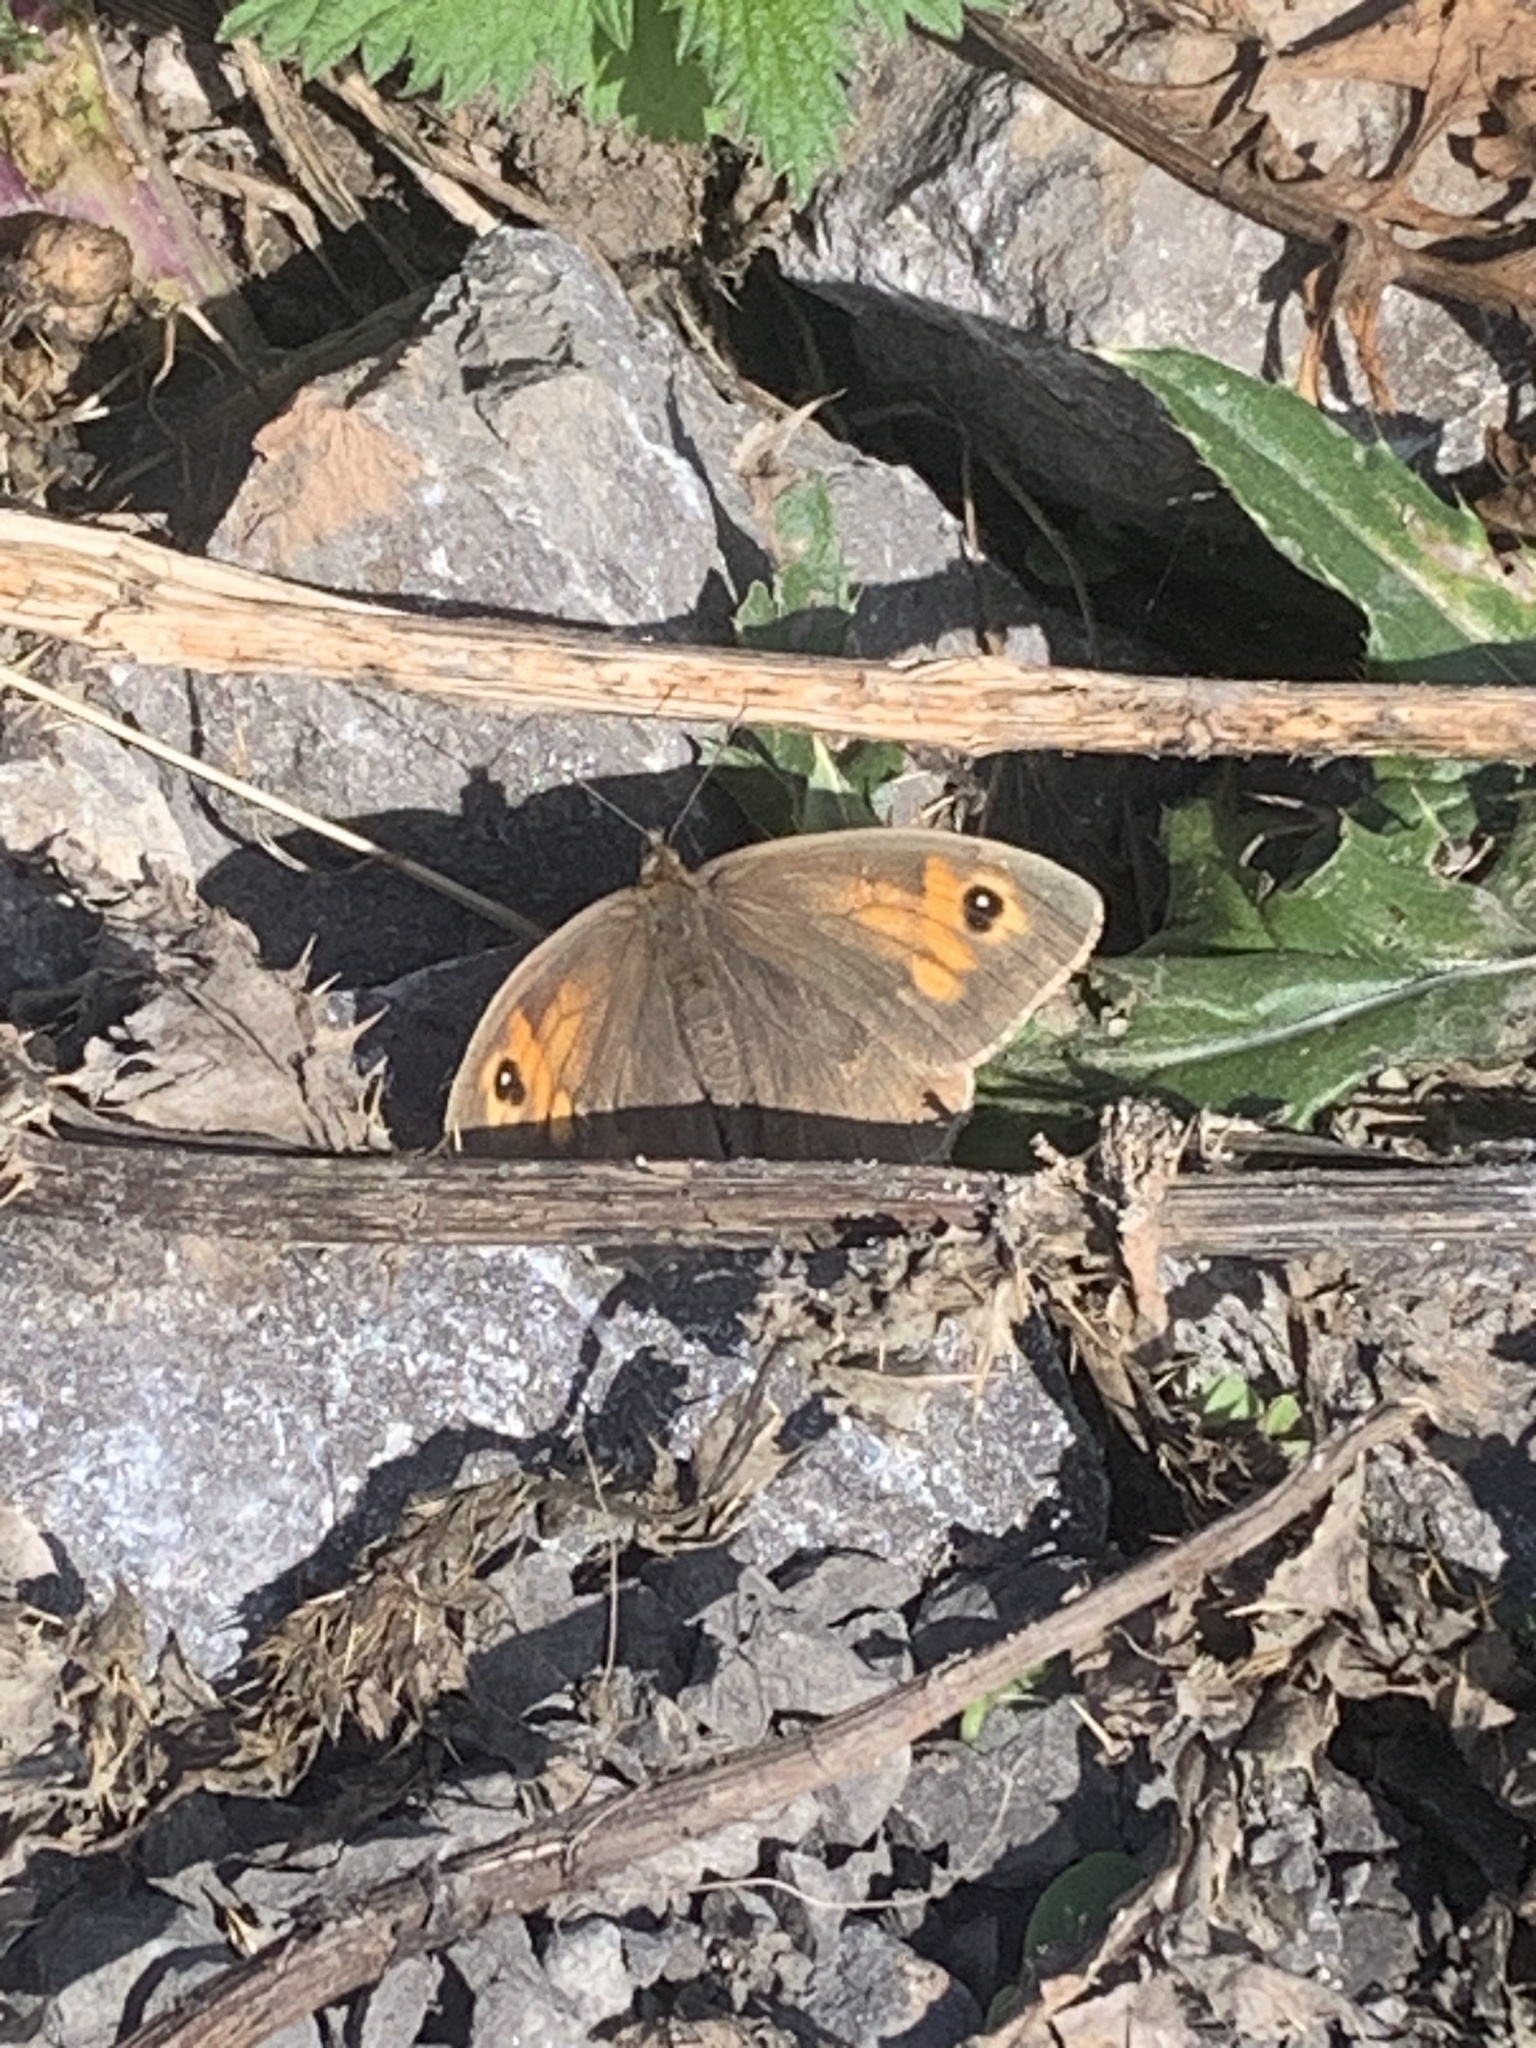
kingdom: Animalia
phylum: Arthropoda
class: Insecta
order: Lepidoptera
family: Nymphalidae
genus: Maniola
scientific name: Maniola jurtina
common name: Meadow brown
